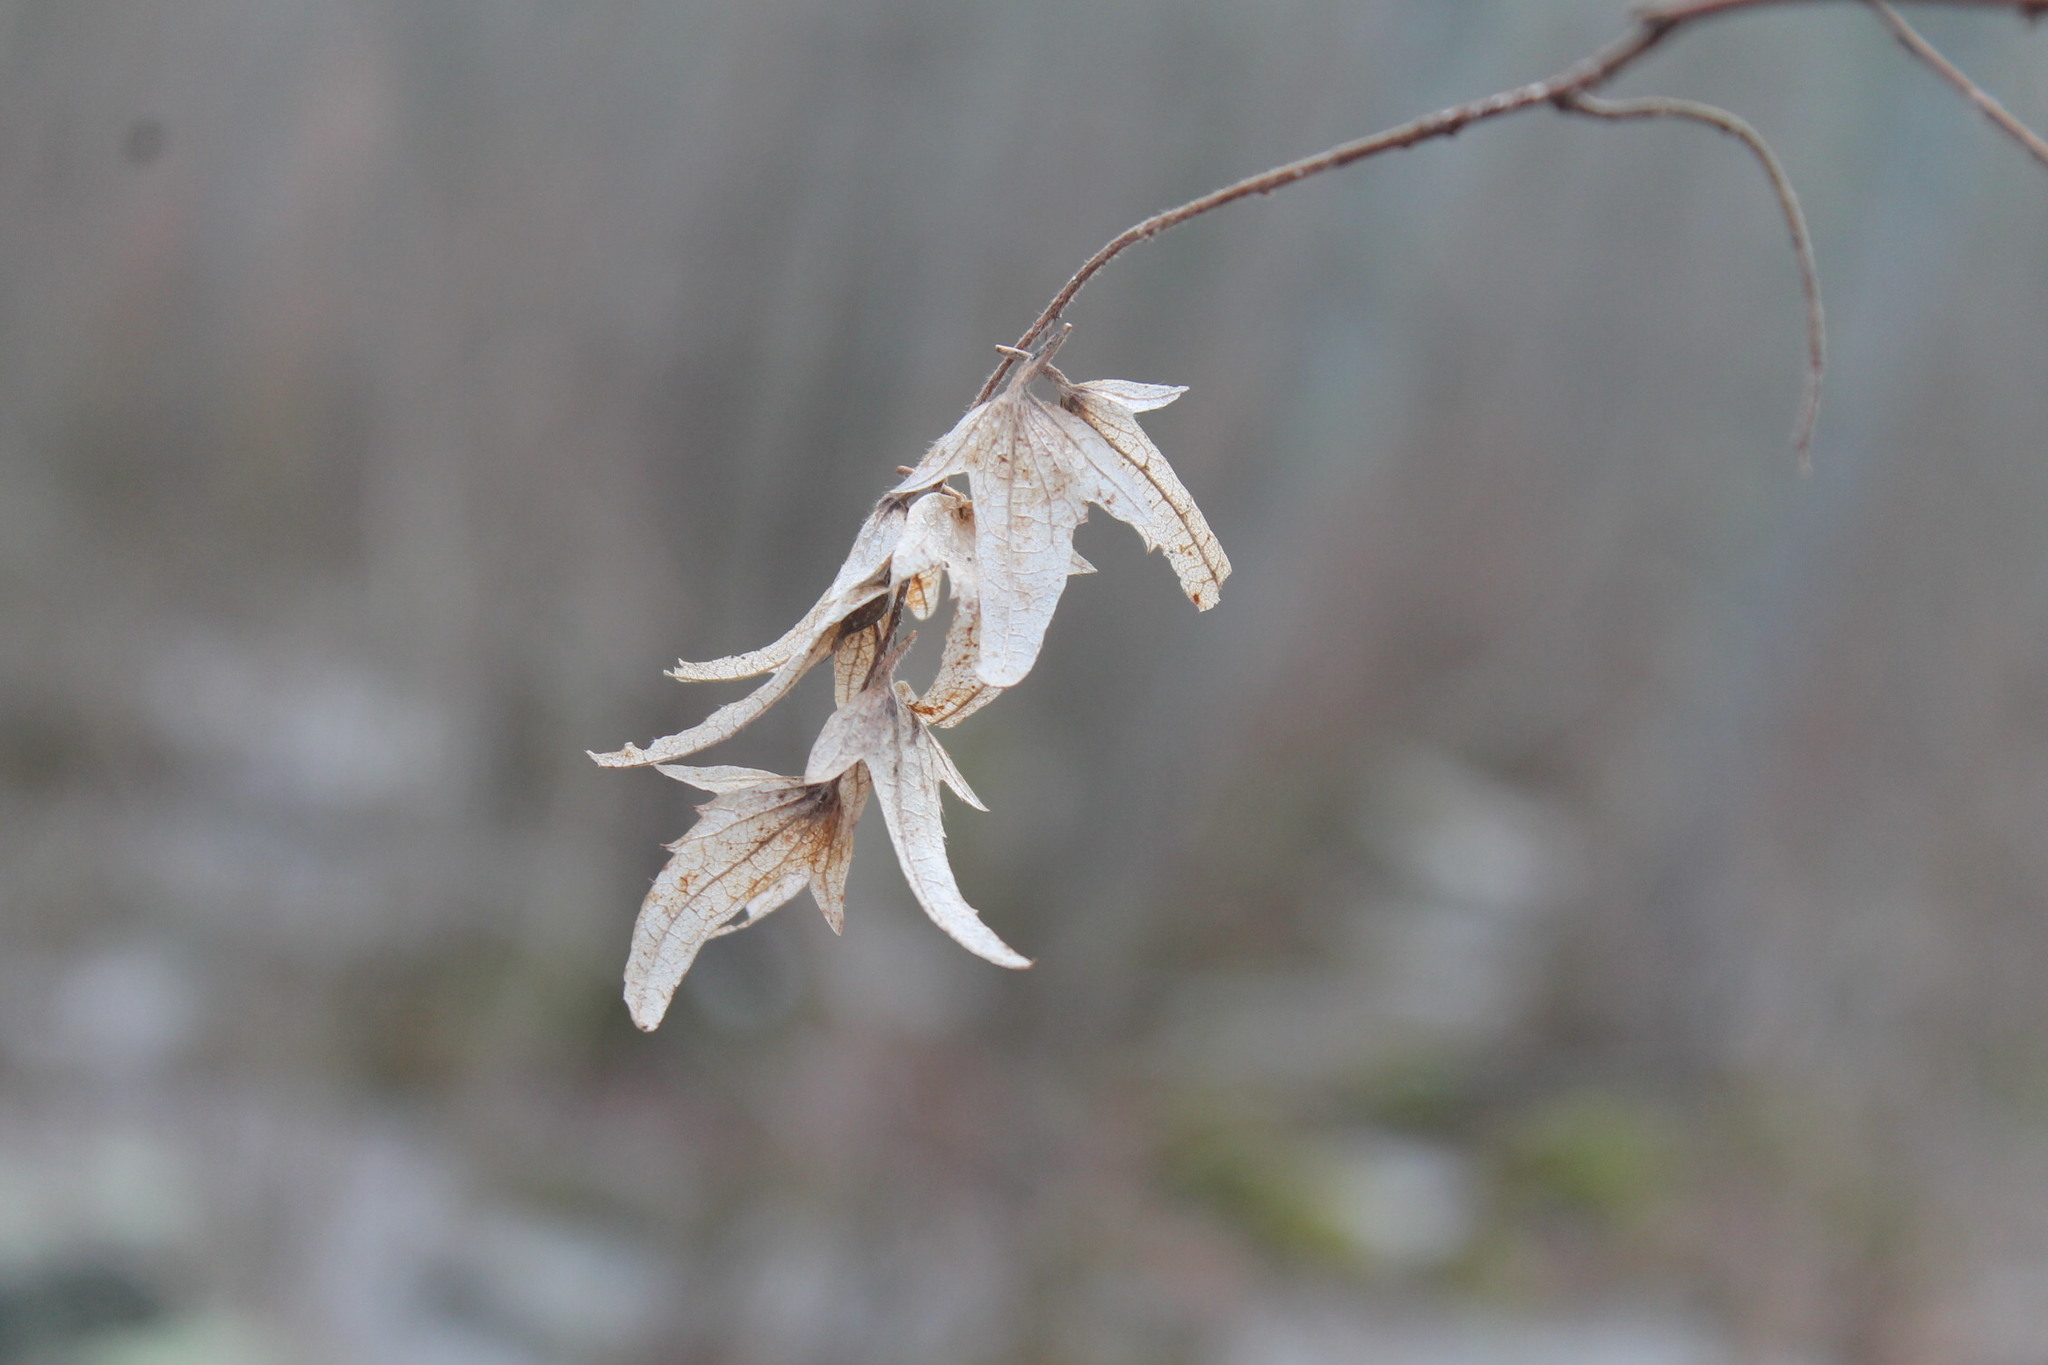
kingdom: Plantae
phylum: Tracheophyta
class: Magnoliopsida
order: Fagales
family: Betulaceae
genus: Carpinus
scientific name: Carpinus caroliniana
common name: American hornbeam
